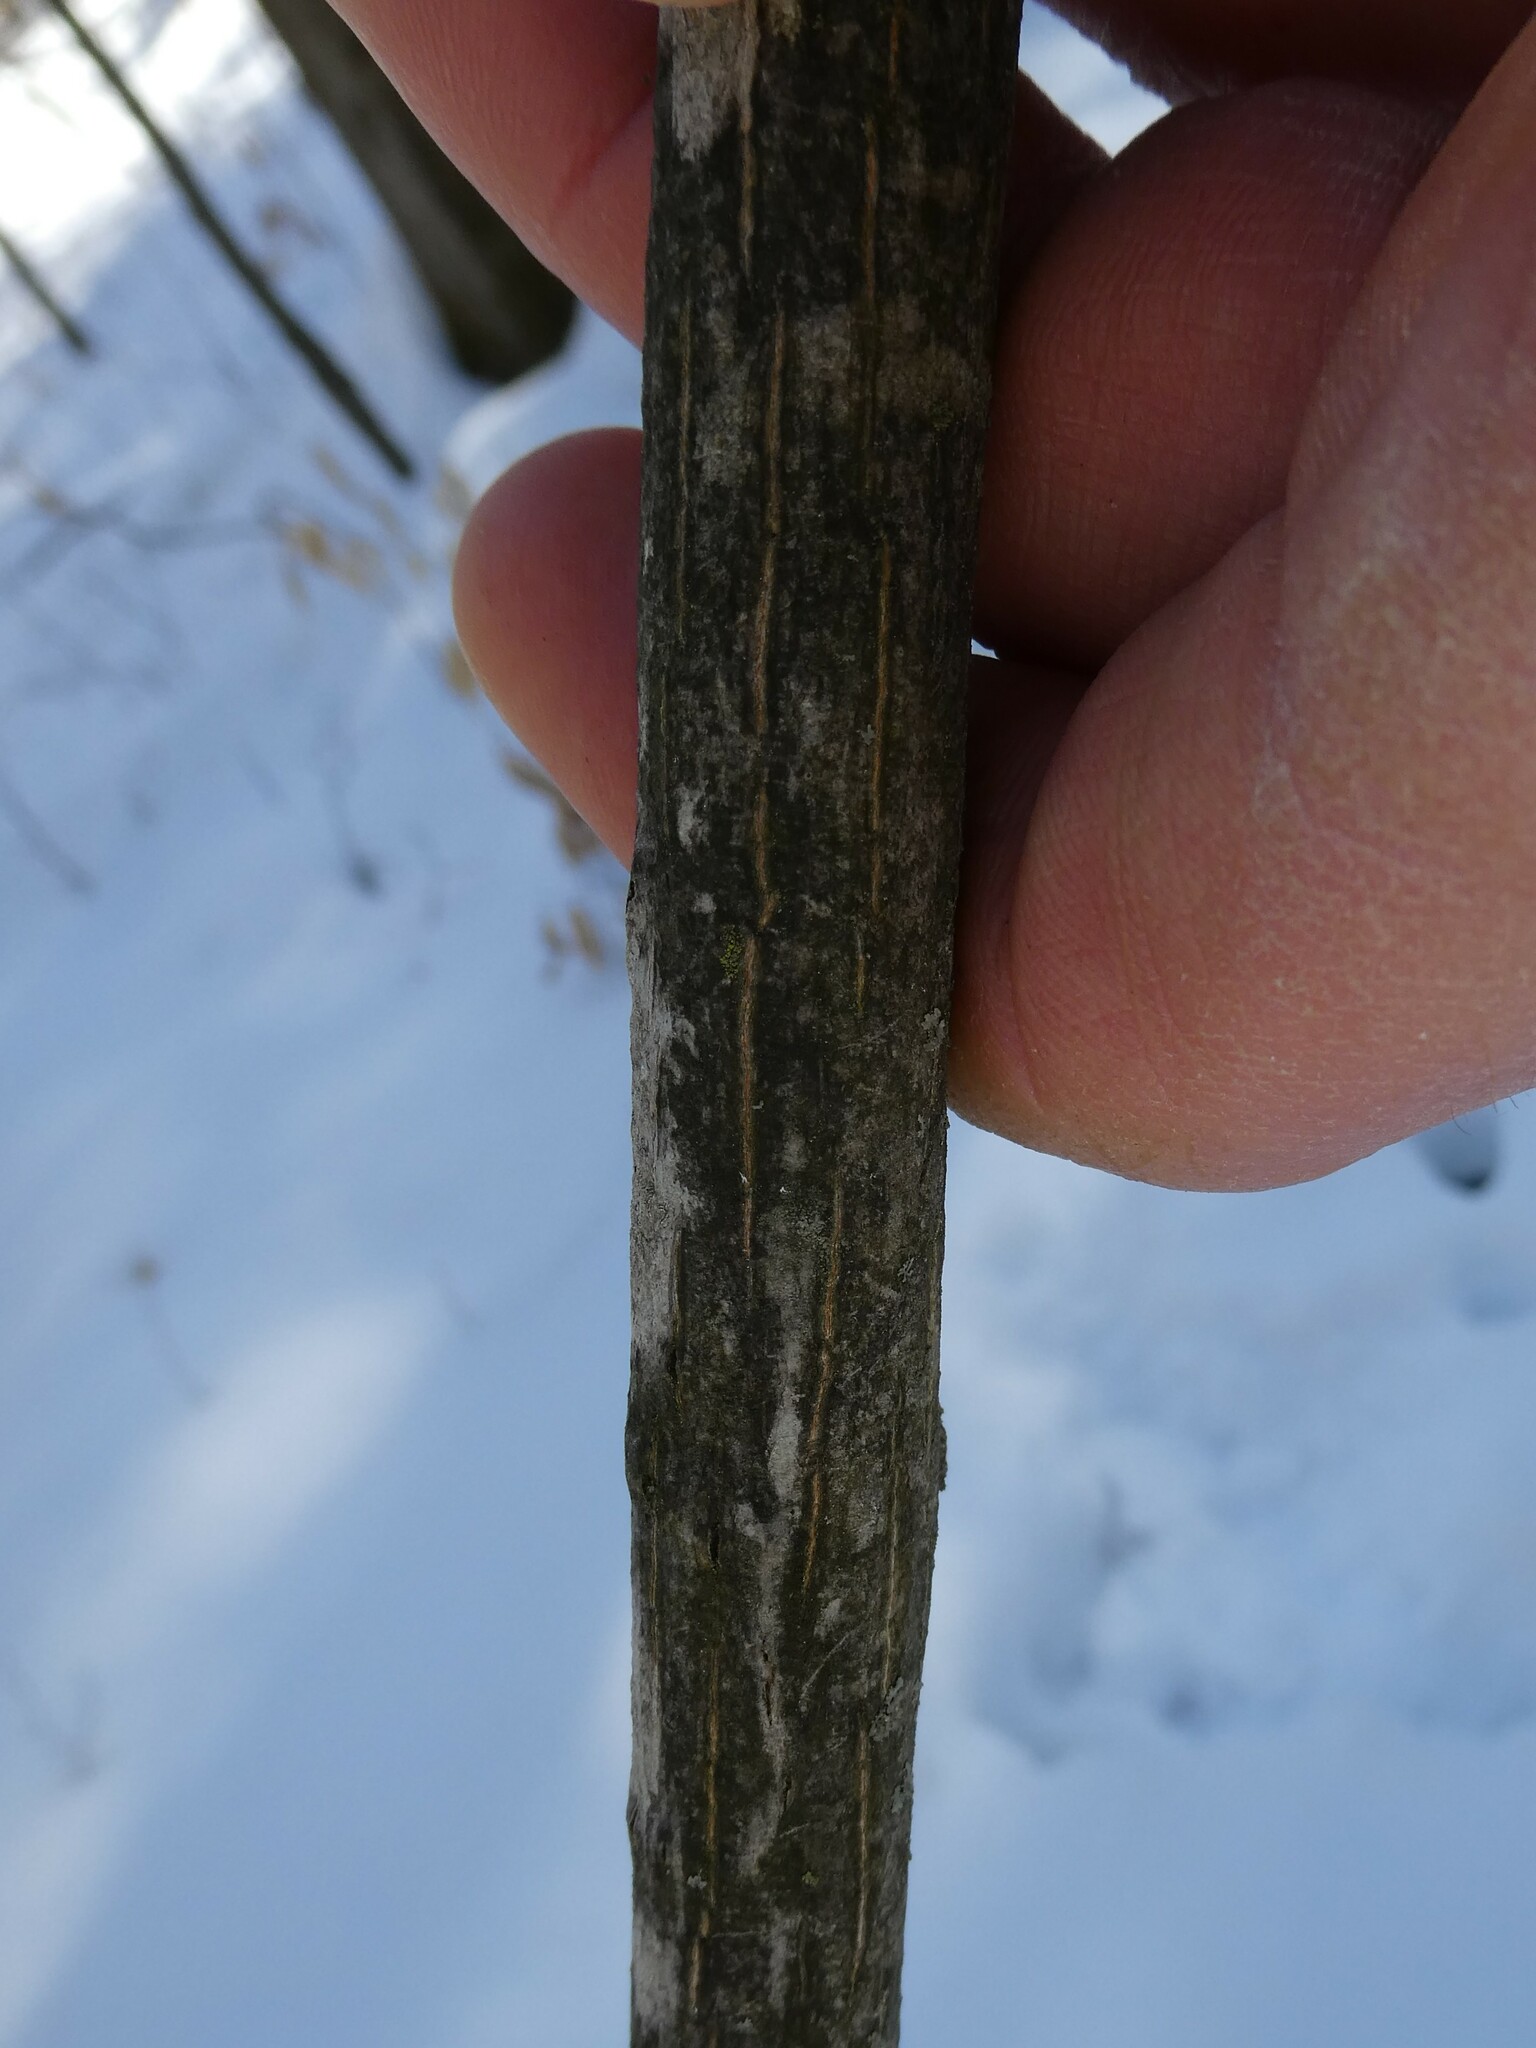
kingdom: Plantae
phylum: Tracheophyta
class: Magnoliopsida
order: Fagales
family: Juglandaceae
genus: Carya
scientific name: Carya cordiformis
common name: Bitternut hickory
